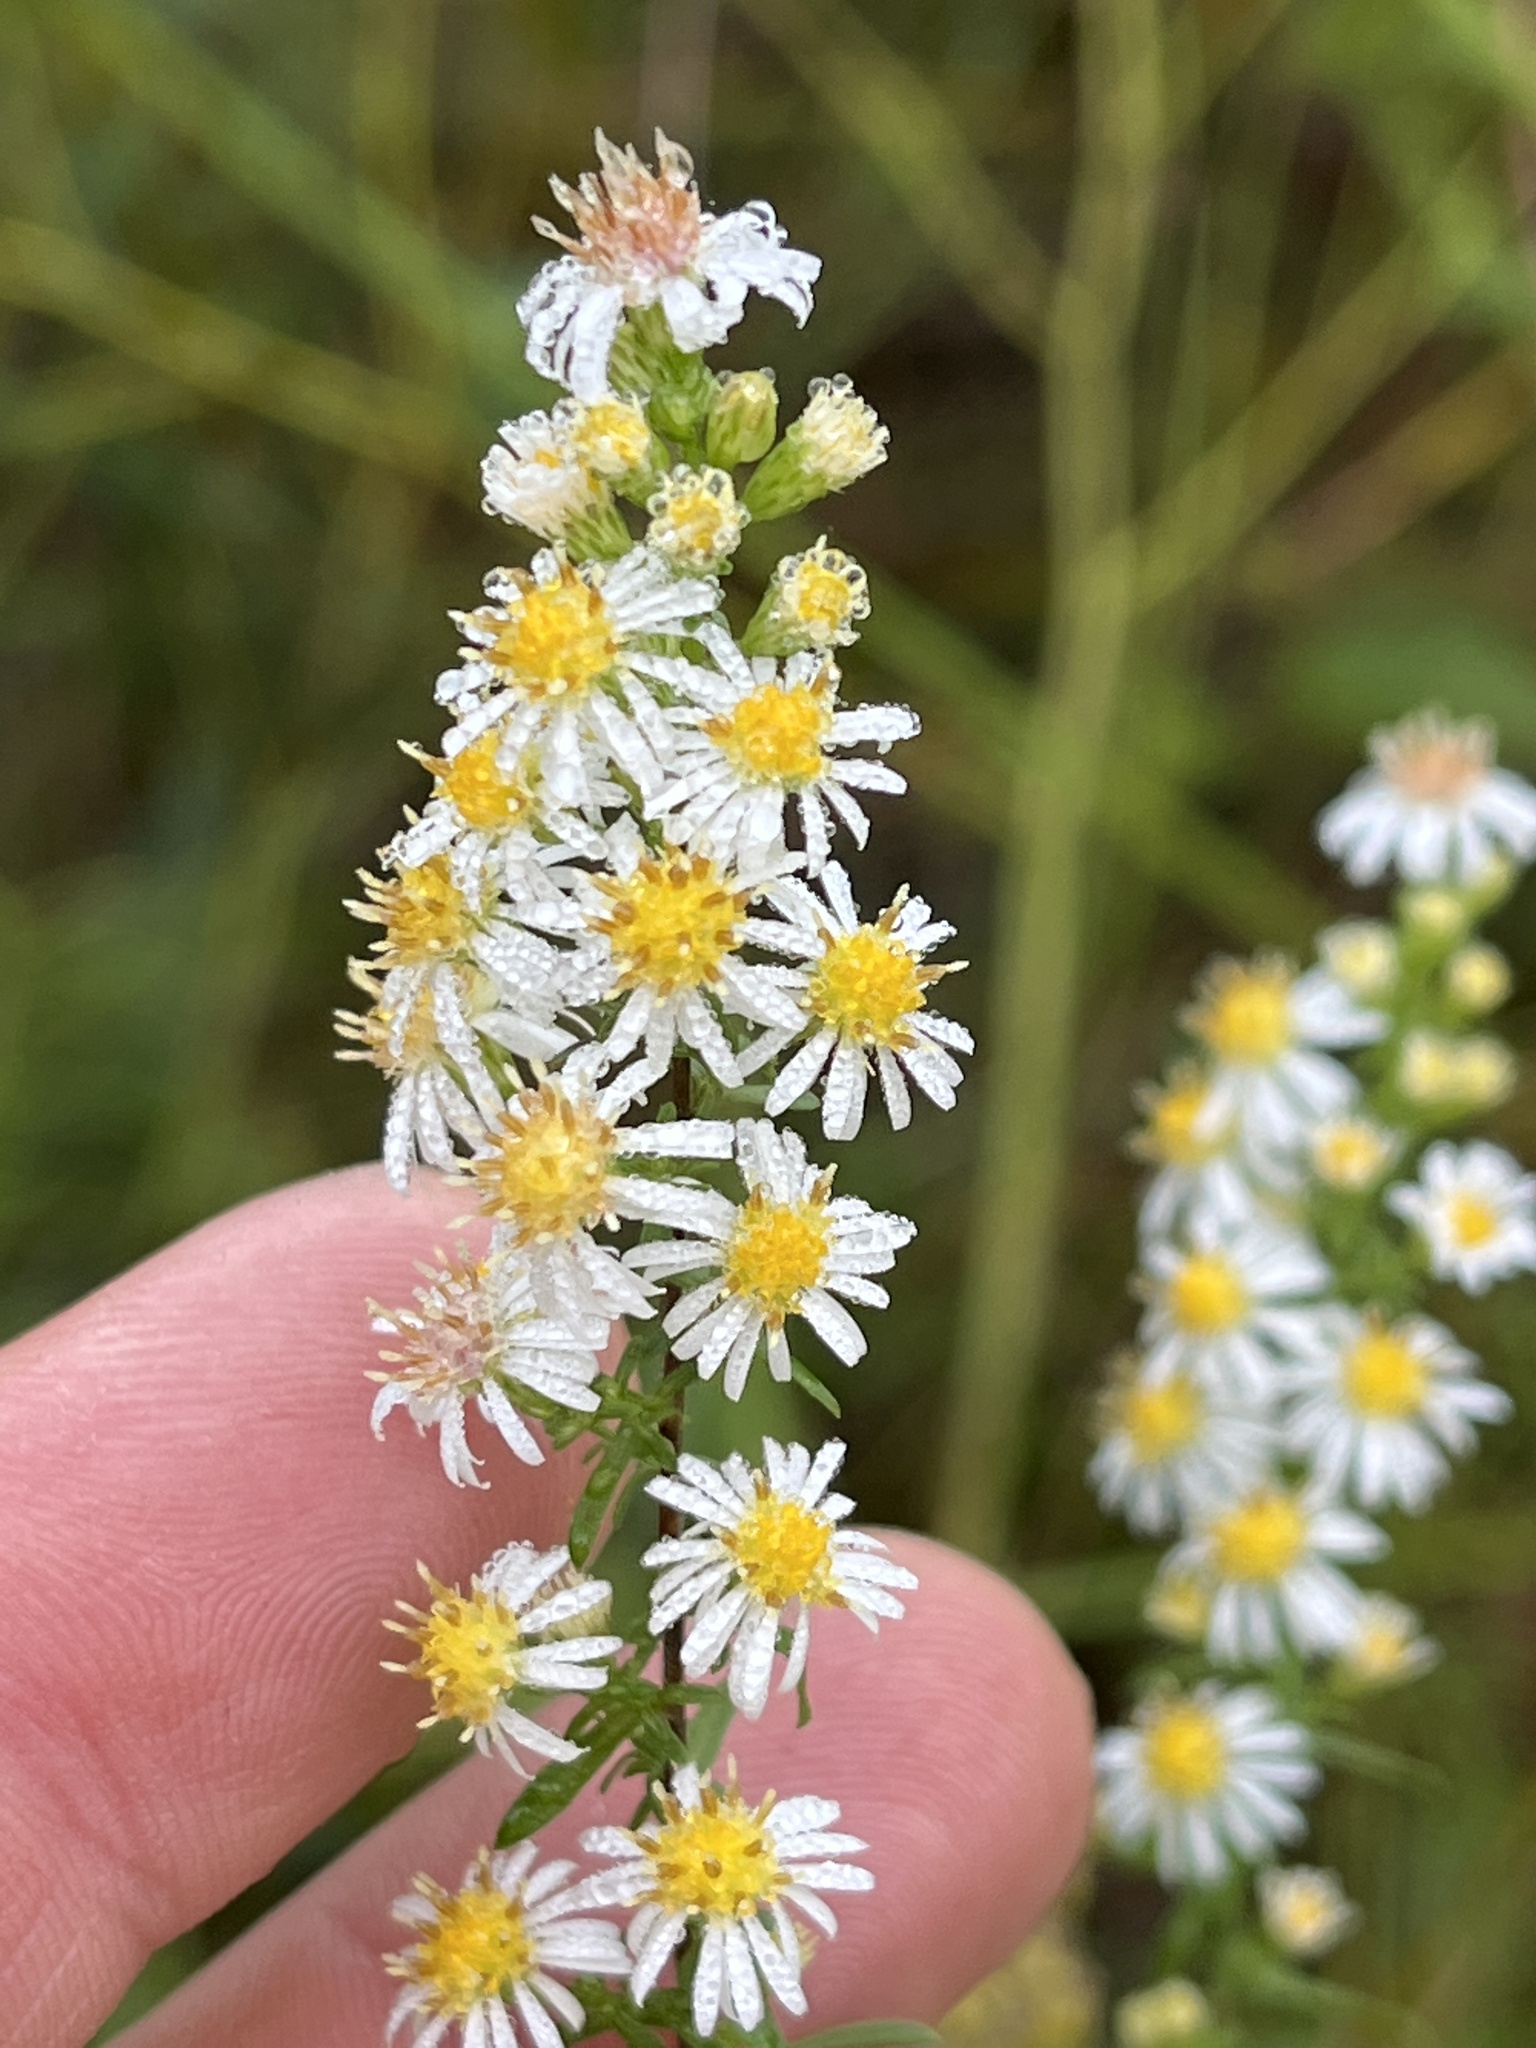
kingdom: Plantae
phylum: Tracheophyta
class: Magnoliopsida
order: Asterales
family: Asteraceae
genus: Symphyotrichum
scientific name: Symphyotrichum racemosum
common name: Small white aster
